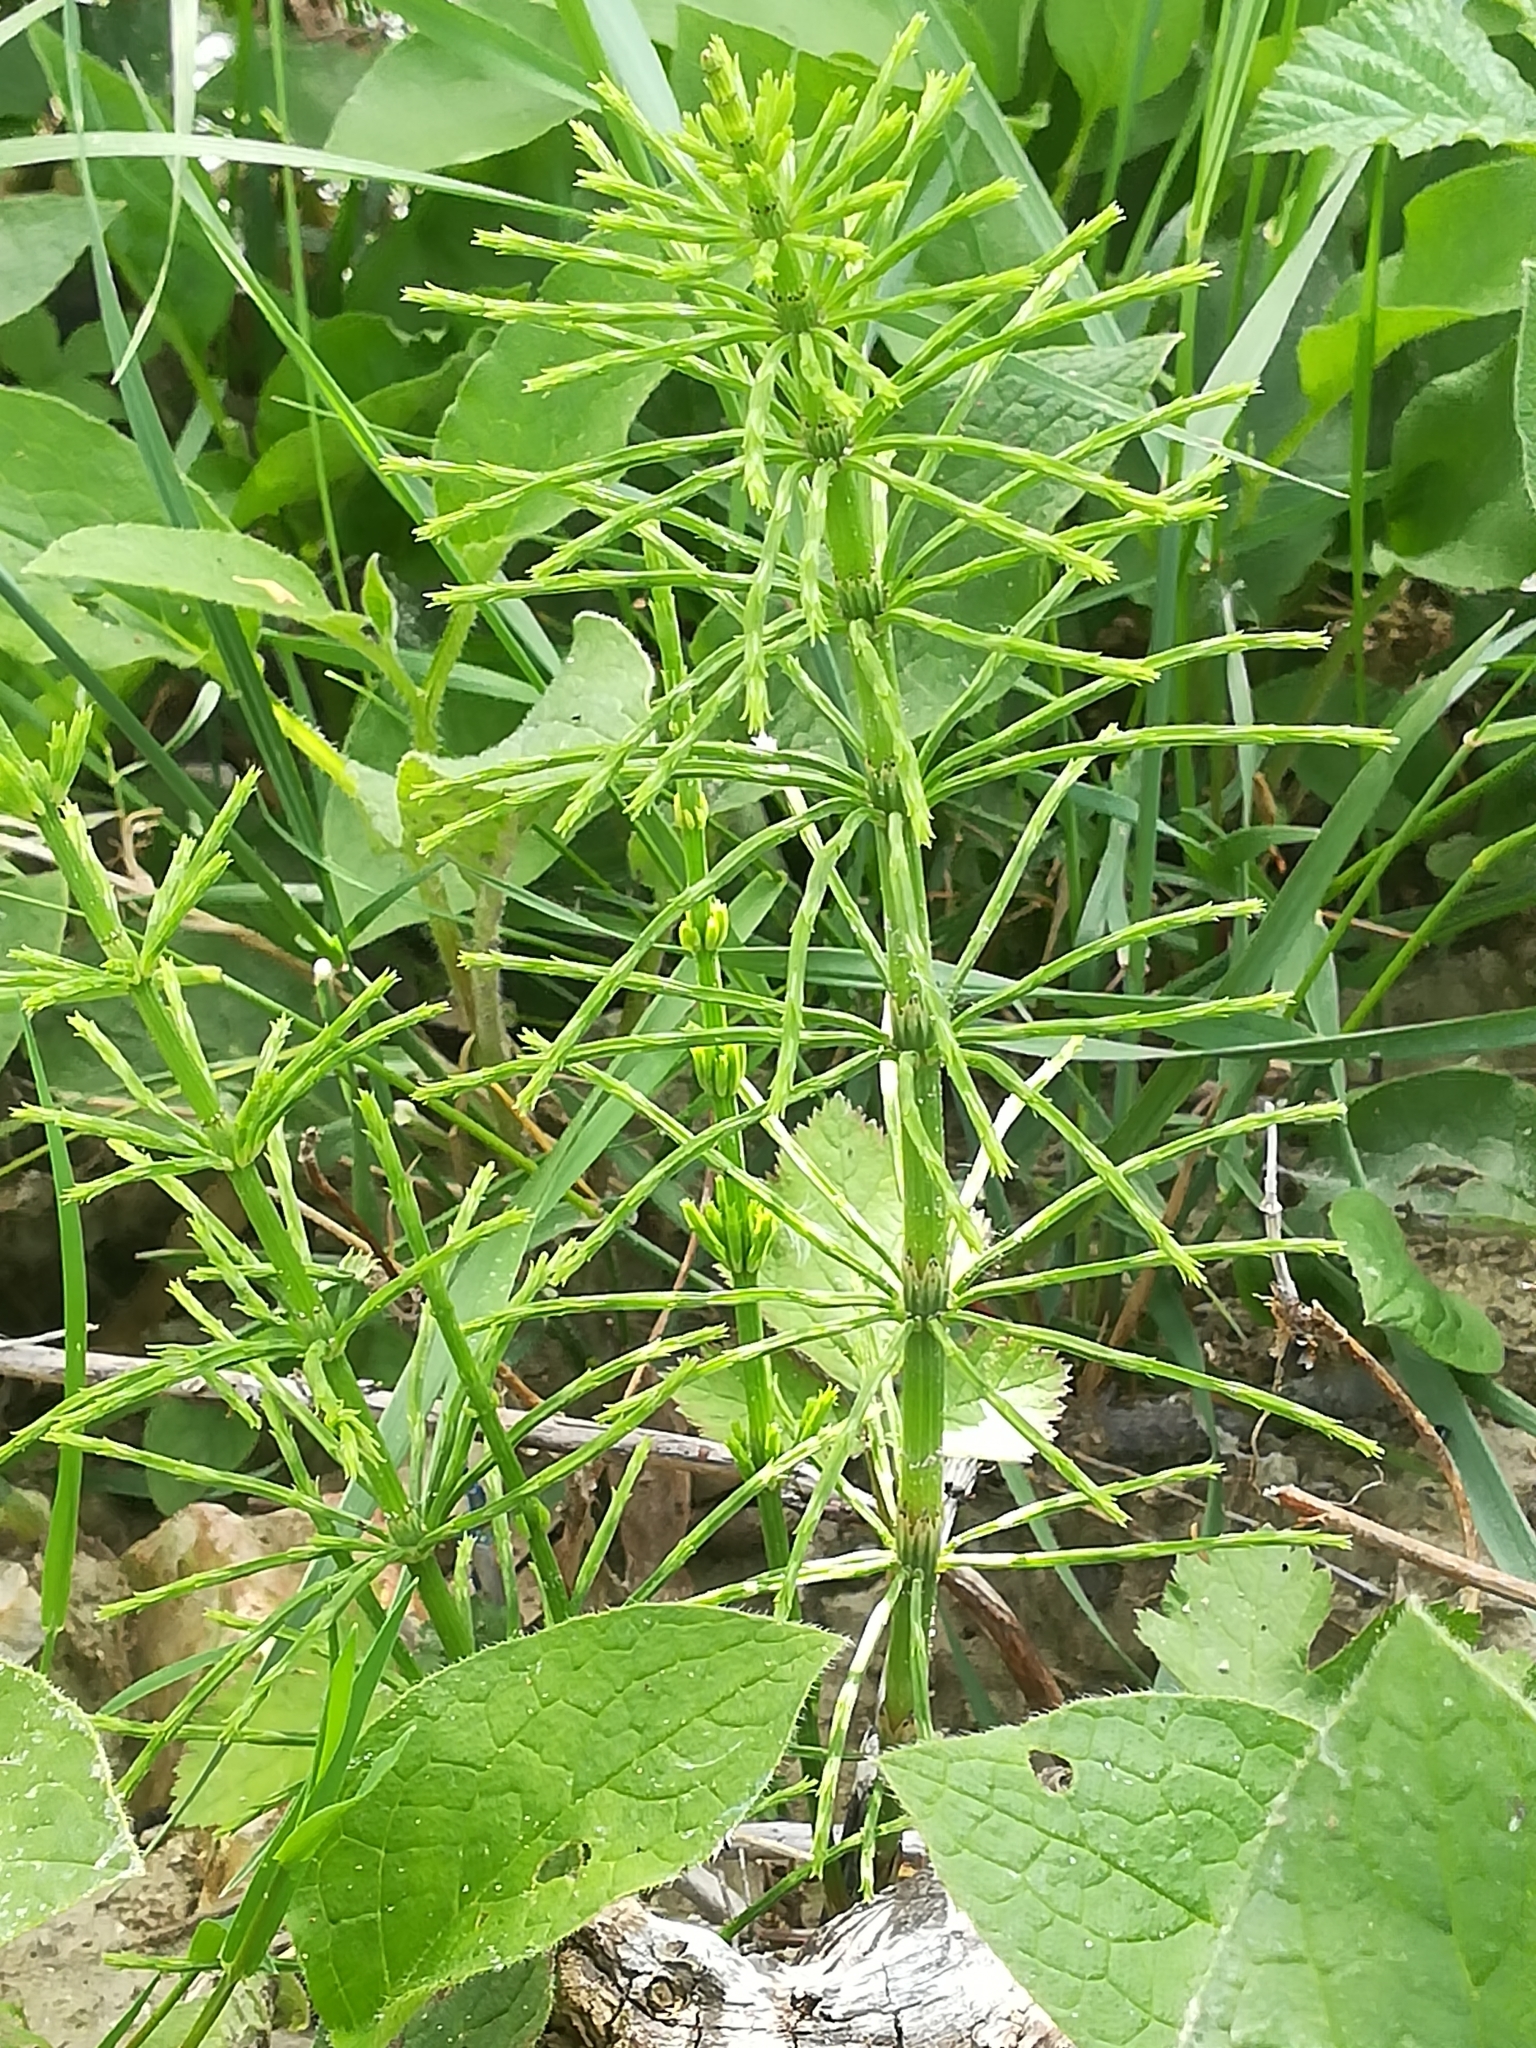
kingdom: Plantae
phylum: Tracheophyta
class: Polypodiopsida
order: Equisetales
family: Equisetaceae
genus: Equisetum
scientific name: Equisetum arvense
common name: Field horsetail
